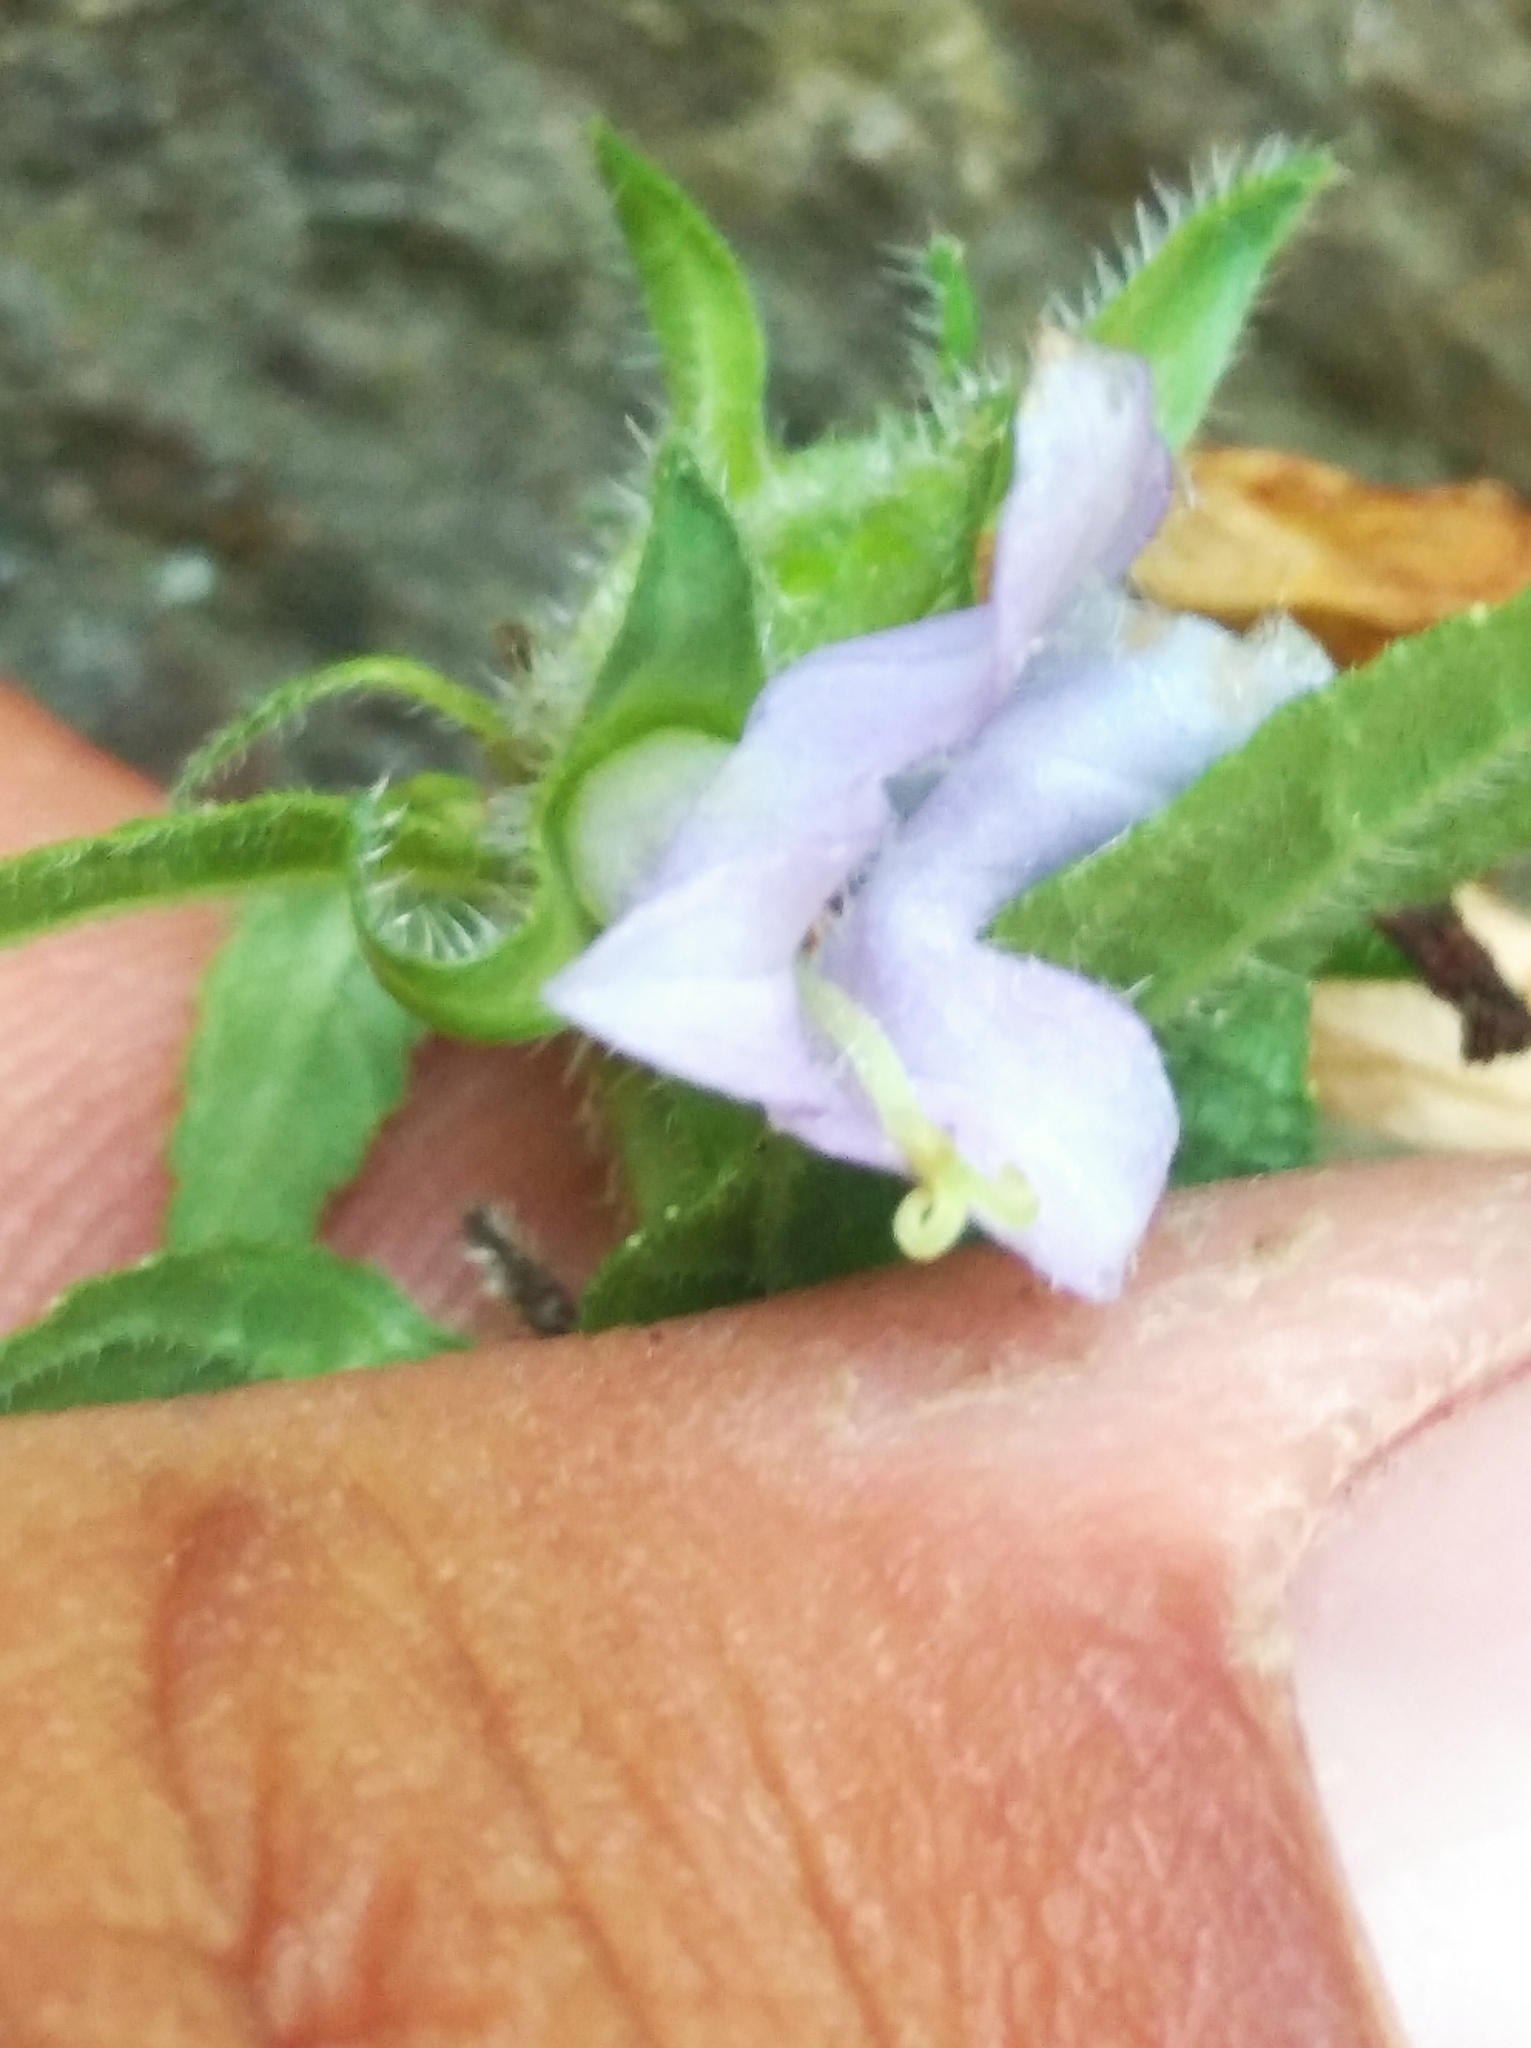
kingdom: Plantae
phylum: Tracheophyta
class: Magnoliopsida
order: Asterales
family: Campanulaceae
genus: Campanula
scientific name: Campanula trachelium
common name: Nettle-leaved bellflower
